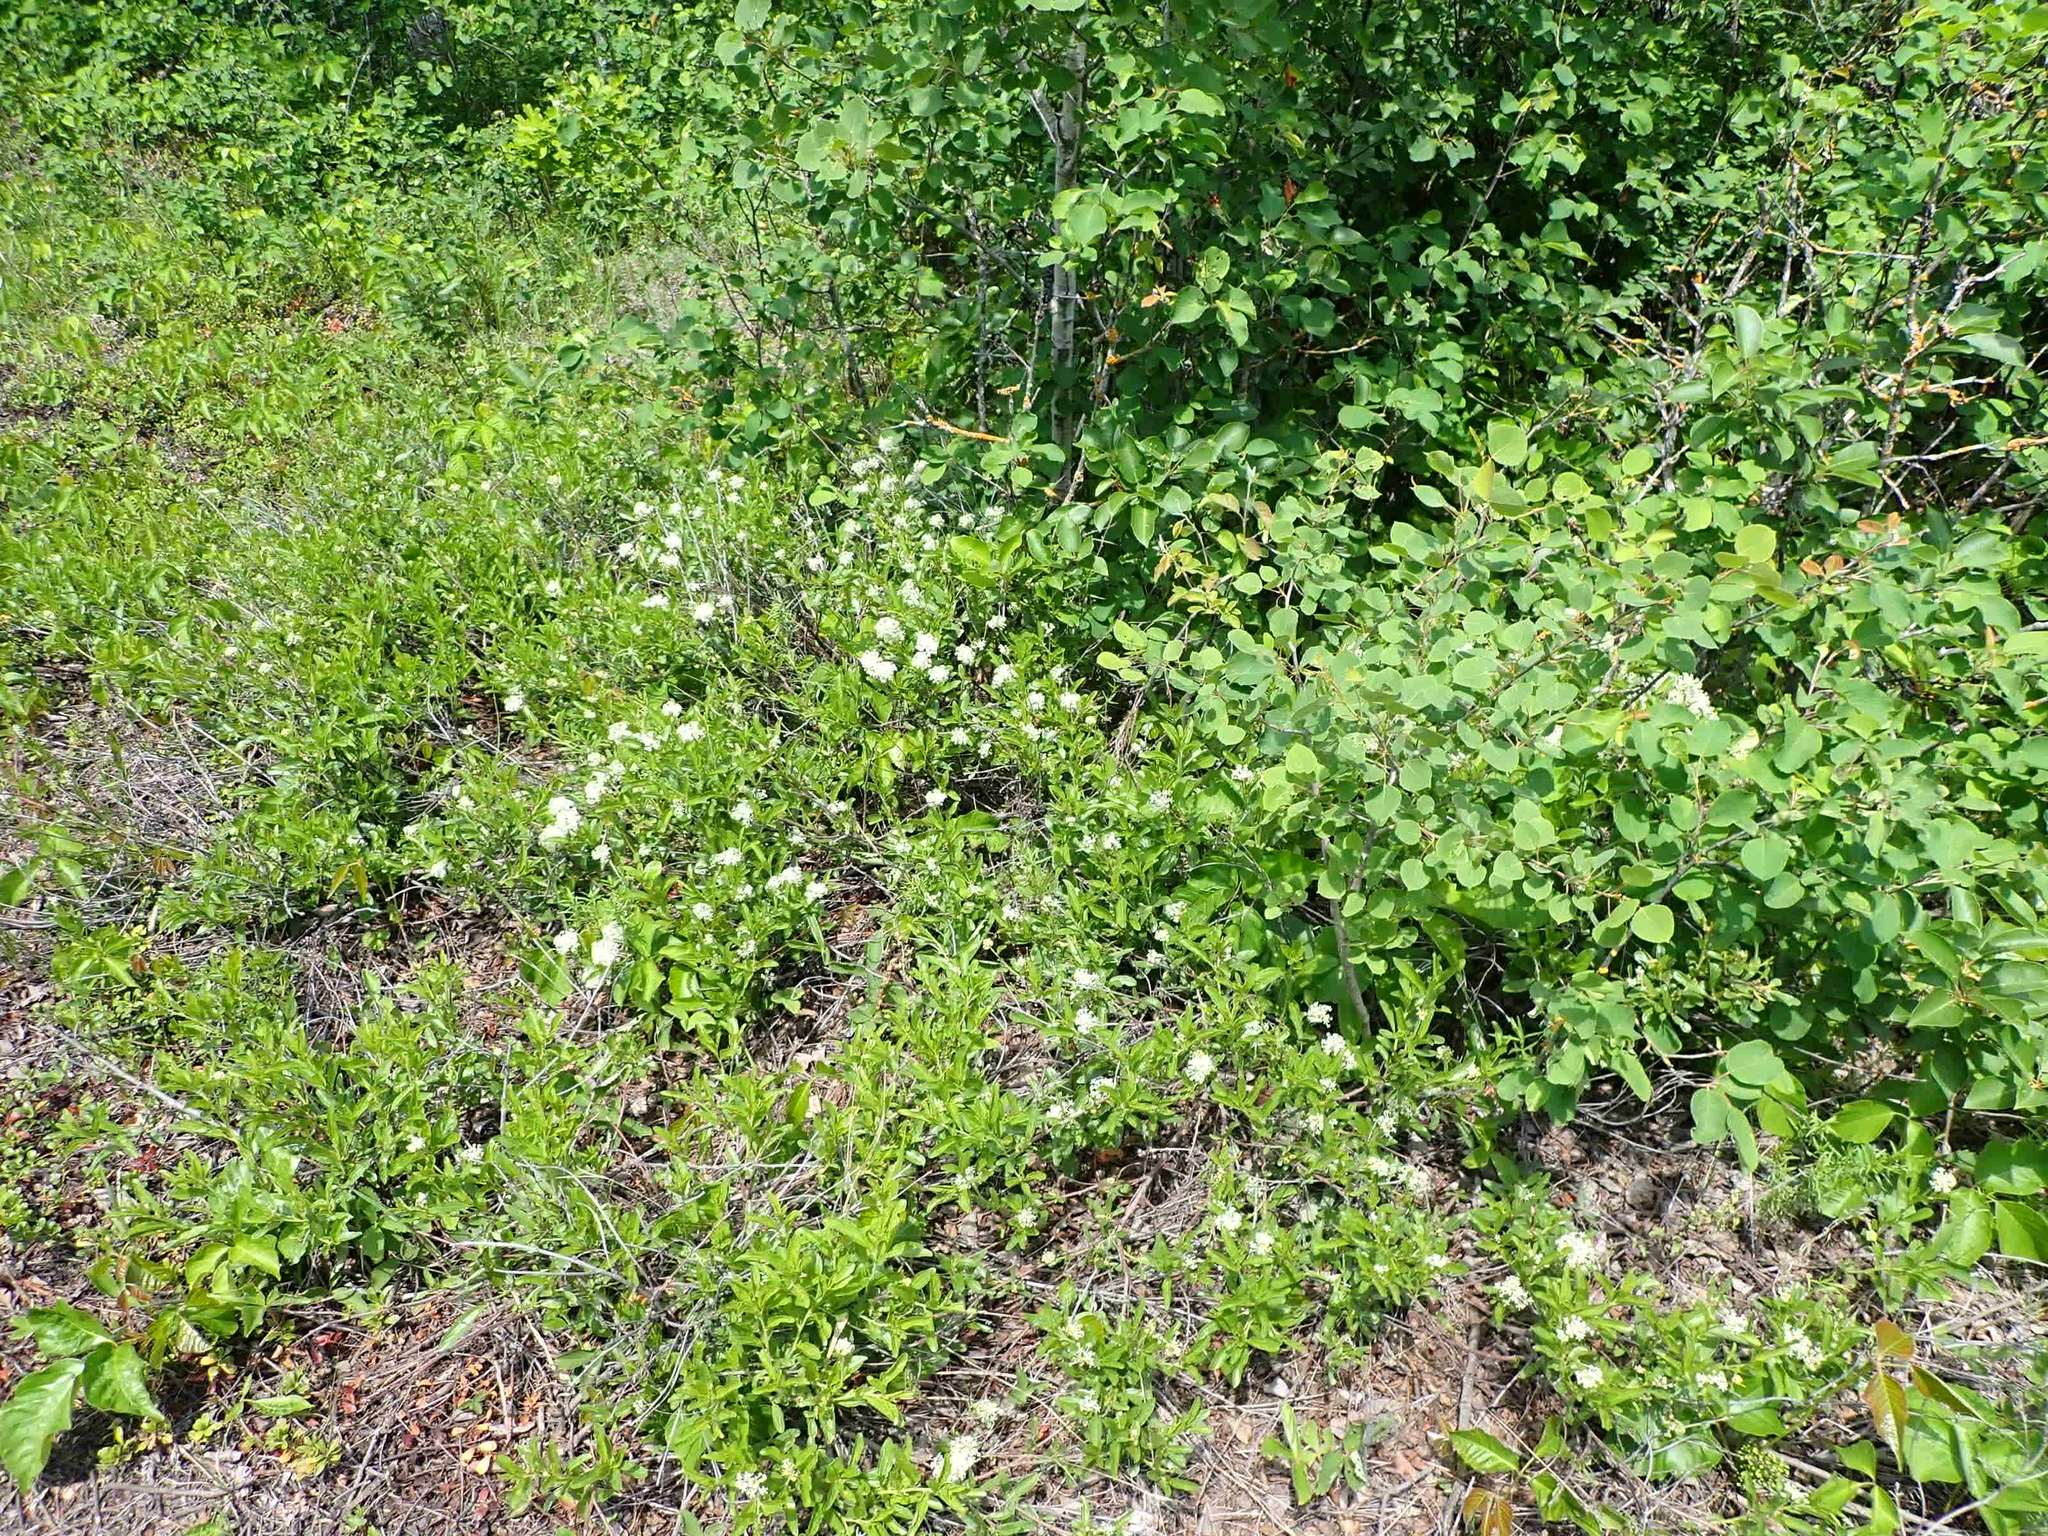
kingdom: Plantae
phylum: Tracheophyta
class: Magnoliopsida
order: Rosales
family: Rhamnaceae
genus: Ceanothus
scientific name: Ceanothus herbaceus
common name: Inland ceanothus
